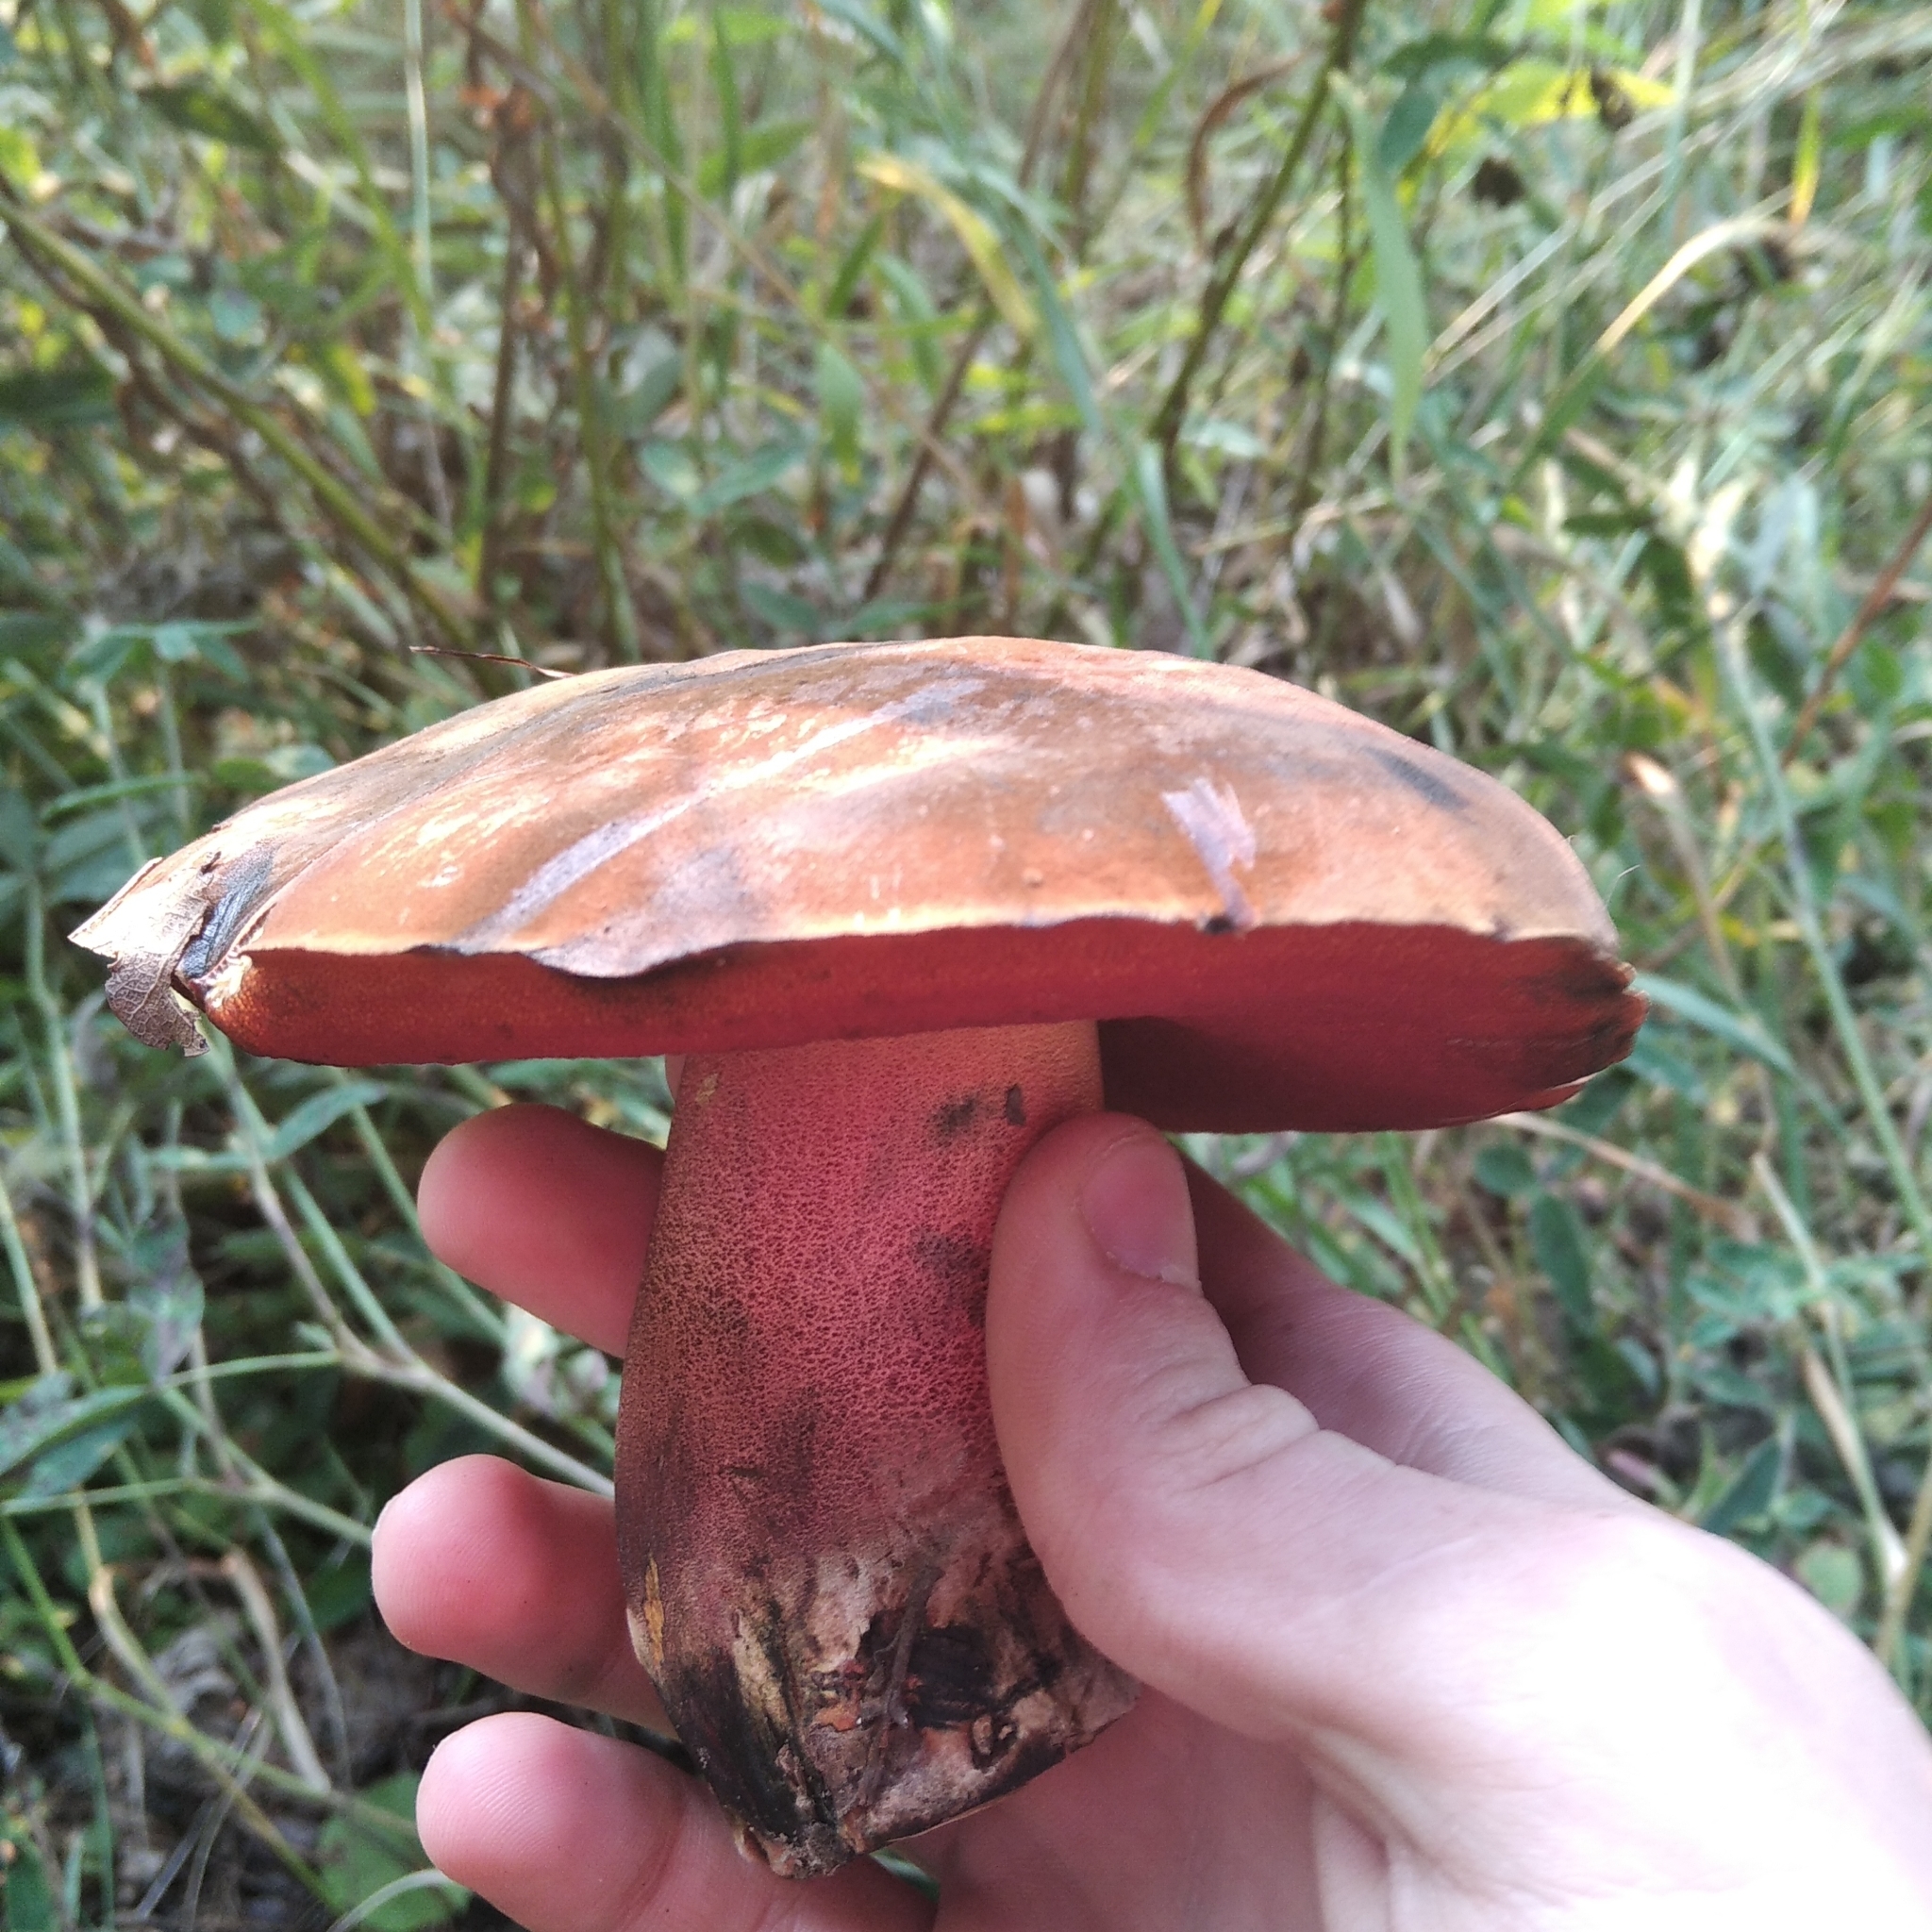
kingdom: Fungi
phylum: Basidiomycota
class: Agaricomycetes
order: Boletales
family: Boletaceae
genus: Neoboletus
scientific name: Neoboletus luridiformis
